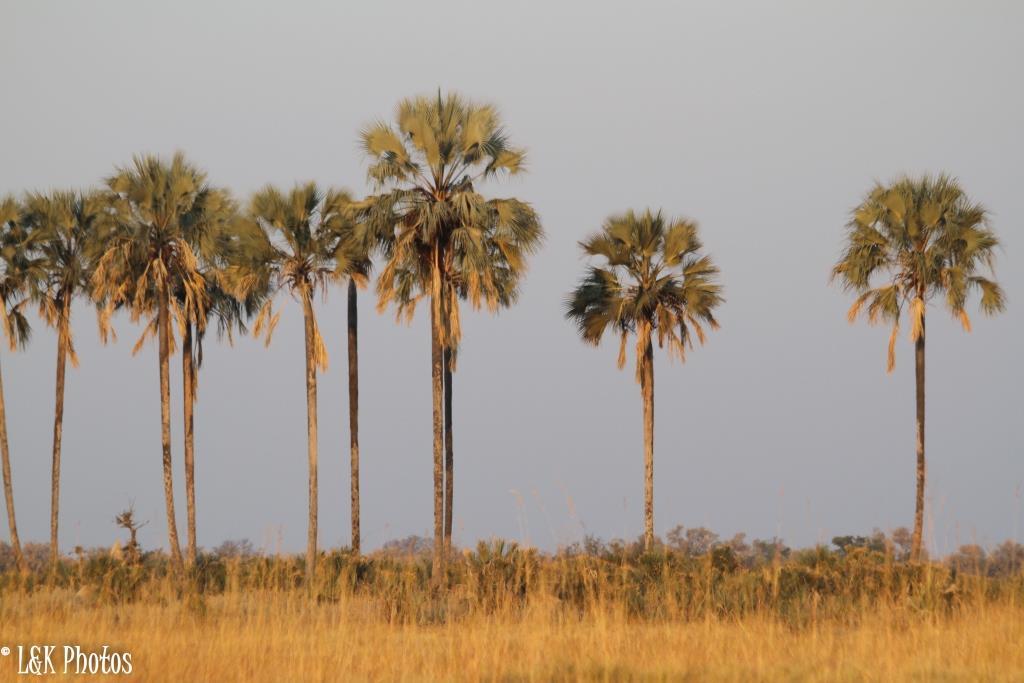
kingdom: Plantae
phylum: Tracheophyta
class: Liliopsida
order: Arecales
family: Arecaceae
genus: Hyphaene
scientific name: Hyphaene petersiana
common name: African ivory nut palm
